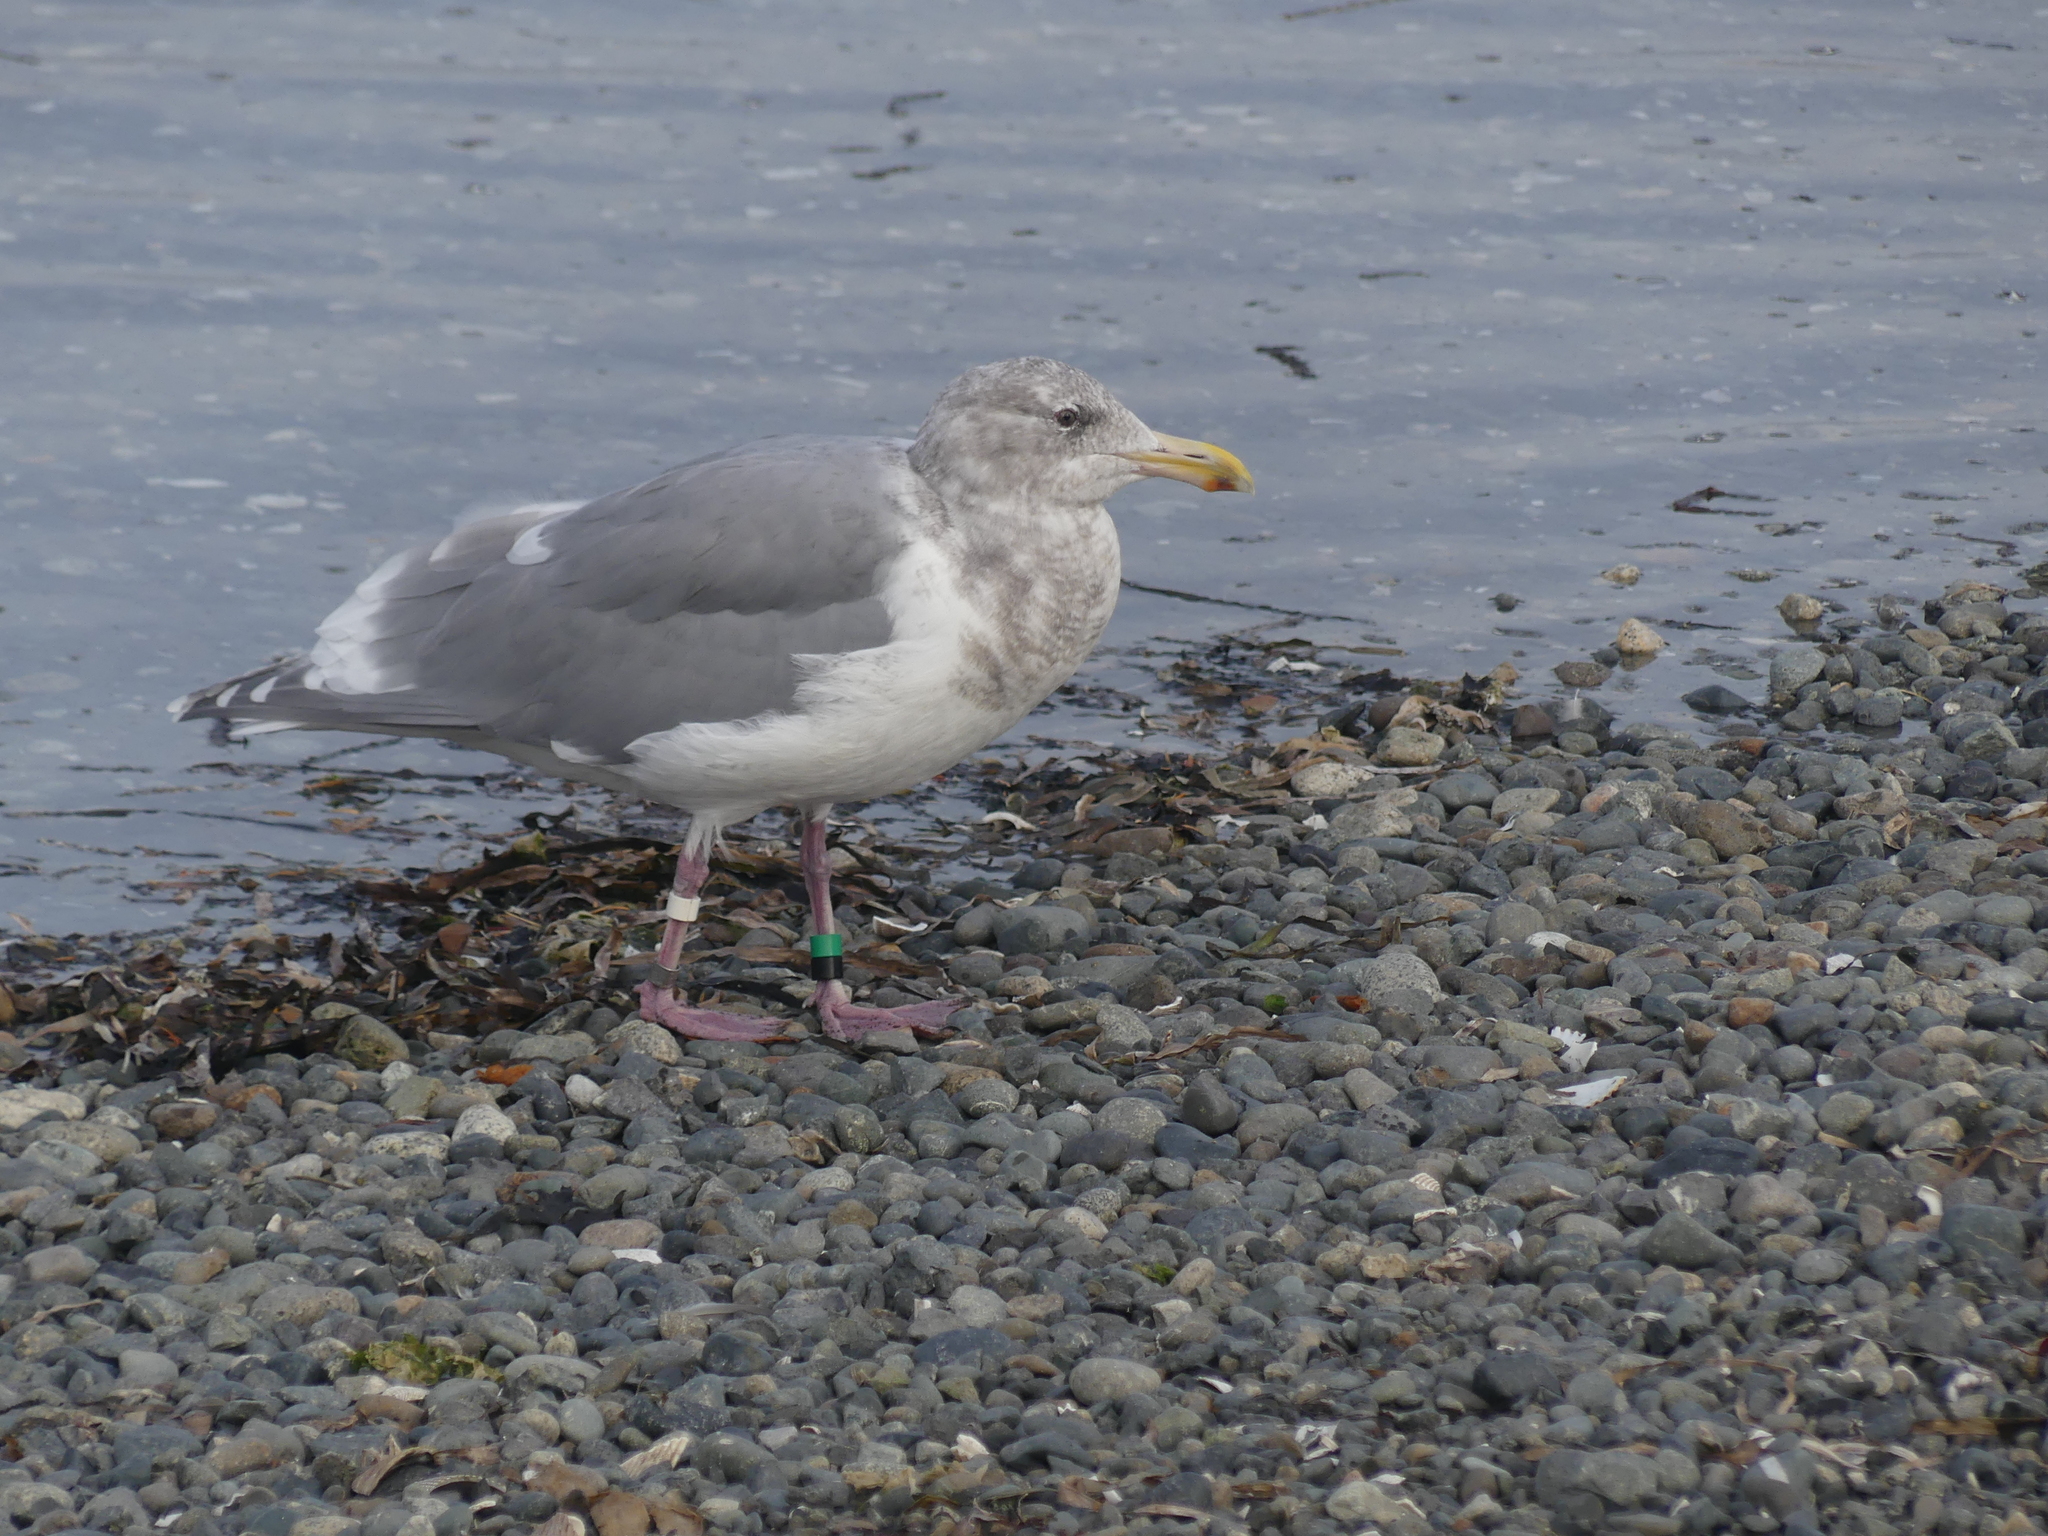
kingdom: Animalia
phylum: Chordata
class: Aves
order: Charadriiformes
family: Laridae
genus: Larus
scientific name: Larus glaucescens
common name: Glaucous-winged gull
